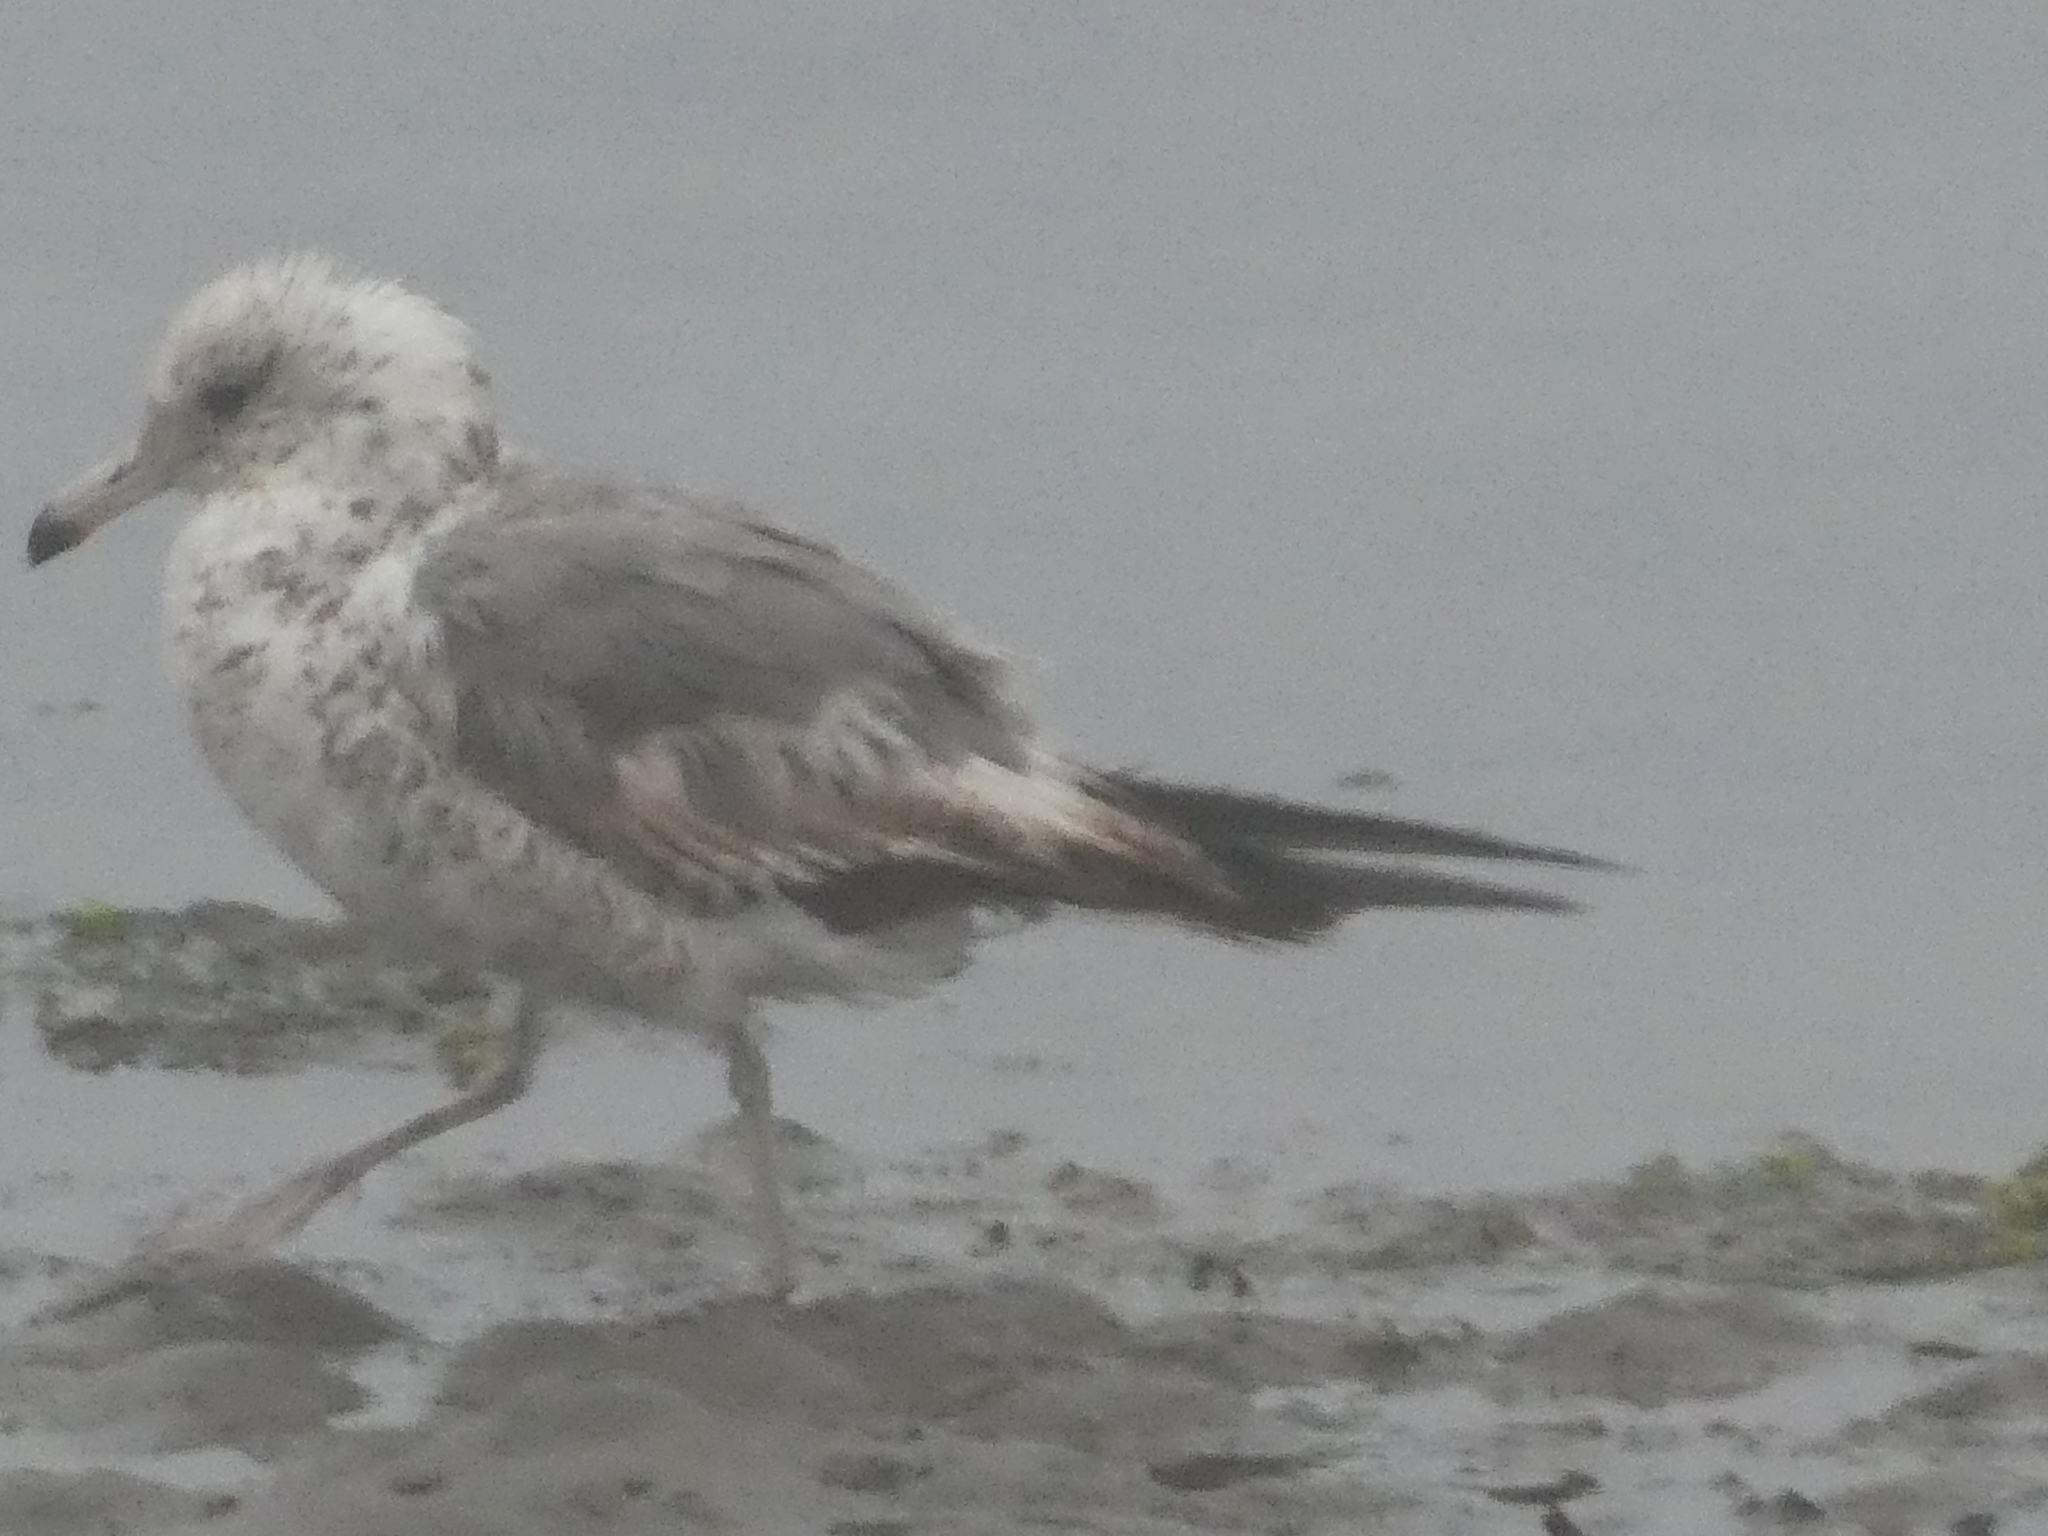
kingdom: Animalia
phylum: Chordata
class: Aves
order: Charadriiformes
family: Laridae
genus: Larus
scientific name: Larus californicus
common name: California gull
